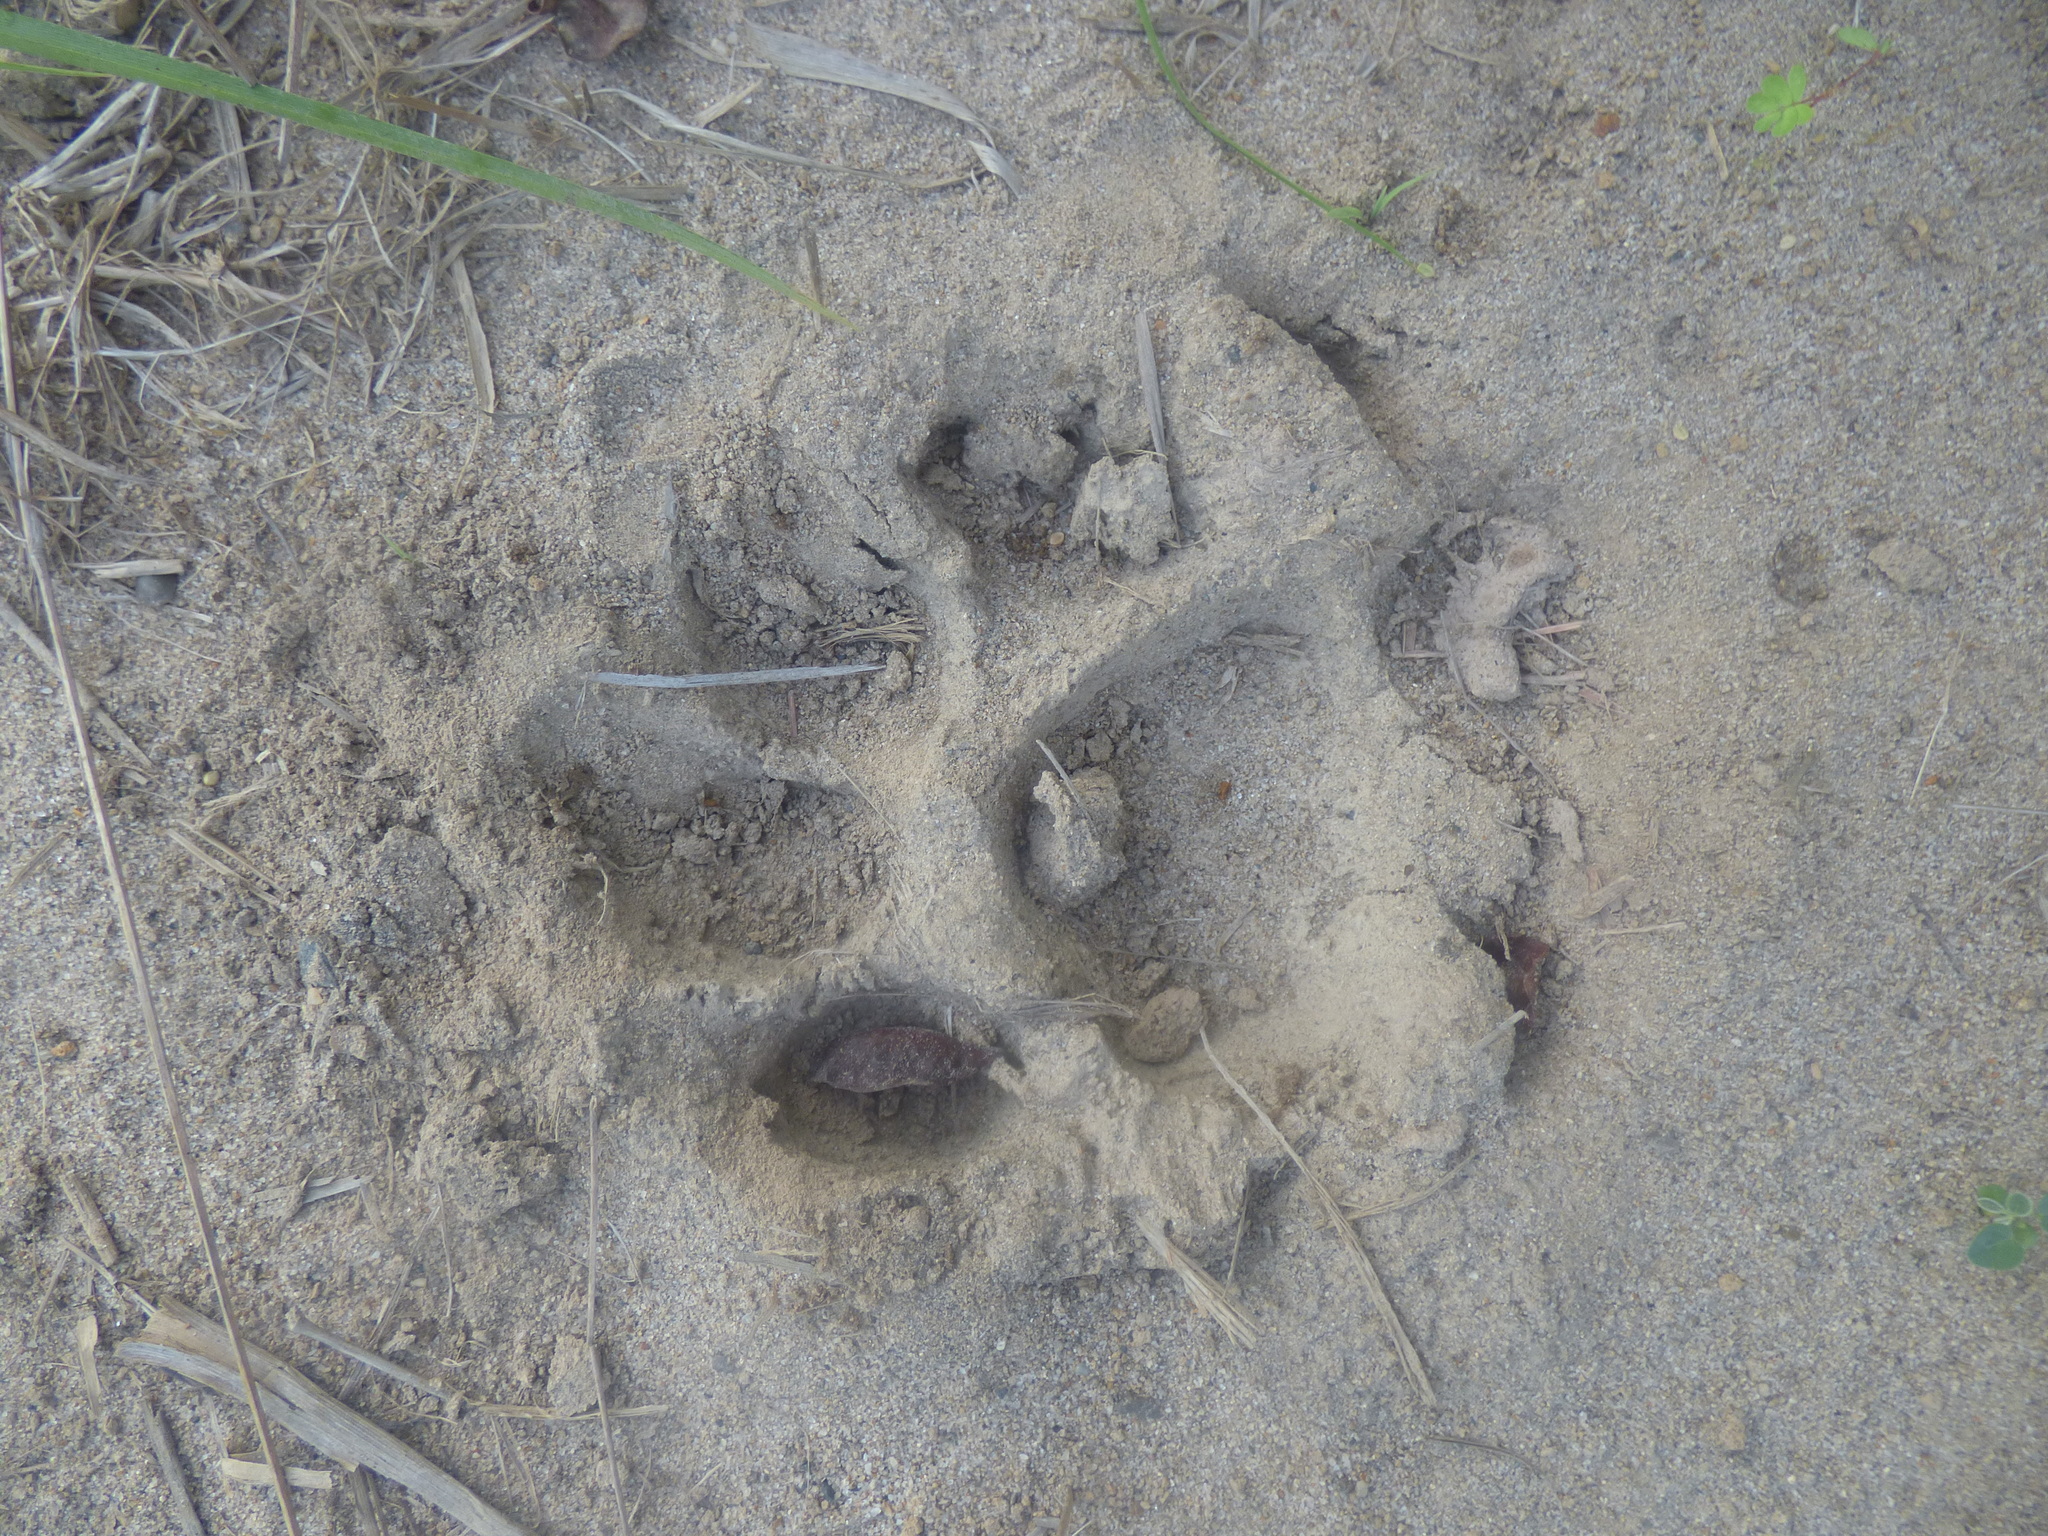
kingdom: Animalia
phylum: Chordata
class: Mammalia
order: Carnivora
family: Felidae
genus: Panthera
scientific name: Panthera onca
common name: Jaguar
